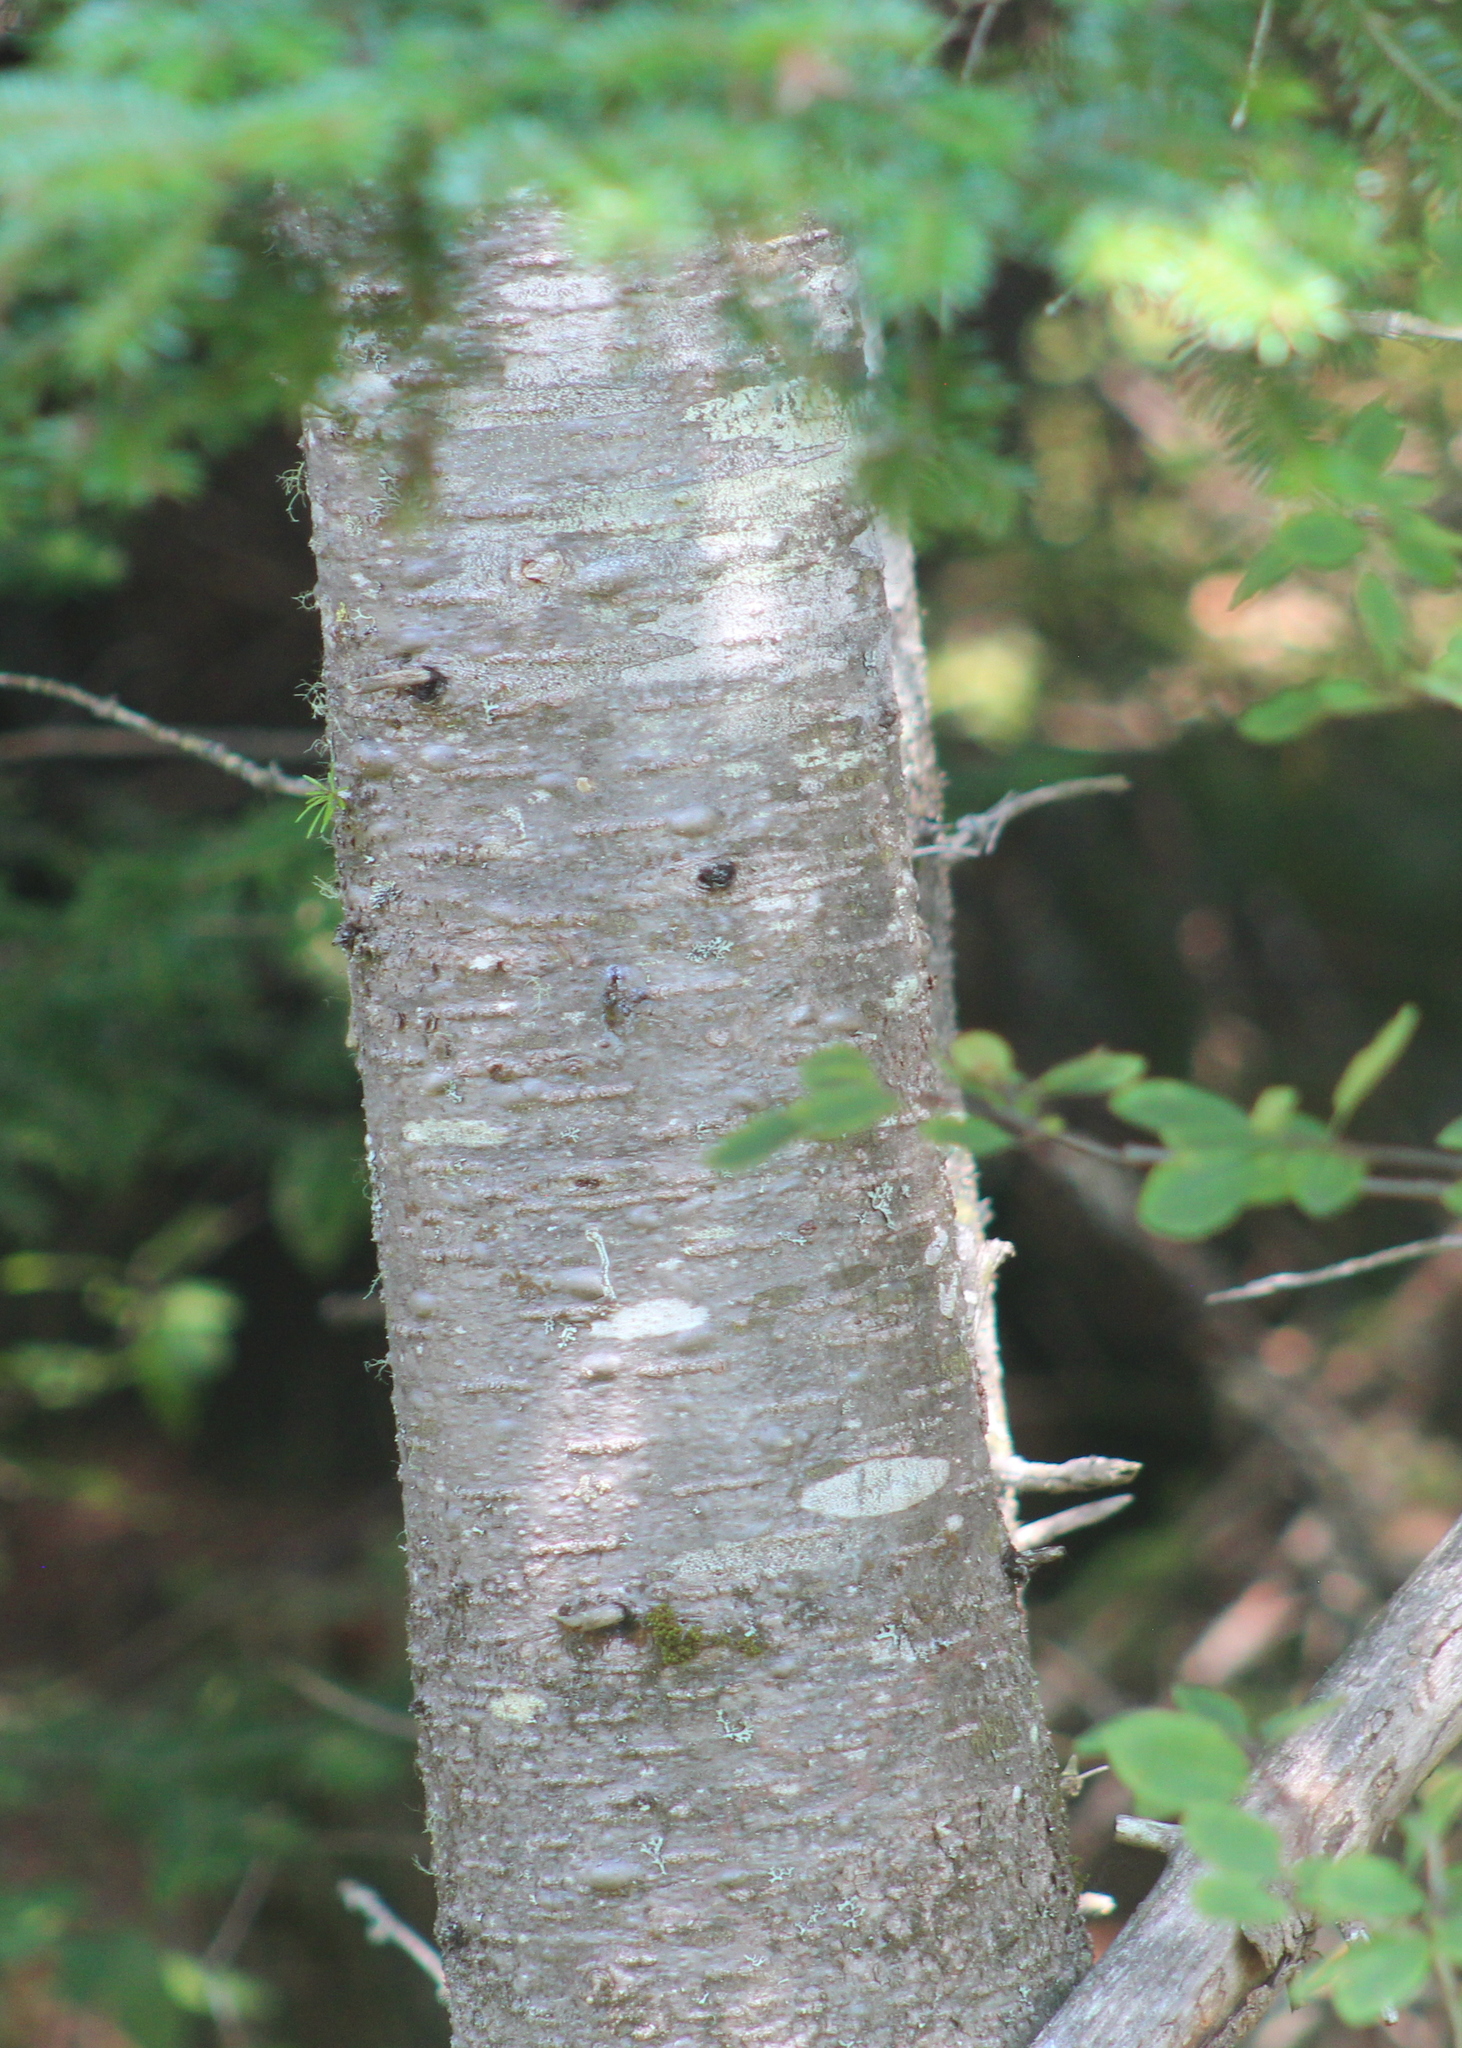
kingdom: Plantae
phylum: Tracheophyta
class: Pinopsida
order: Pinales
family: Pinaceae
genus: Abies
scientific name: Abies balsamea
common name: Balsam fir
